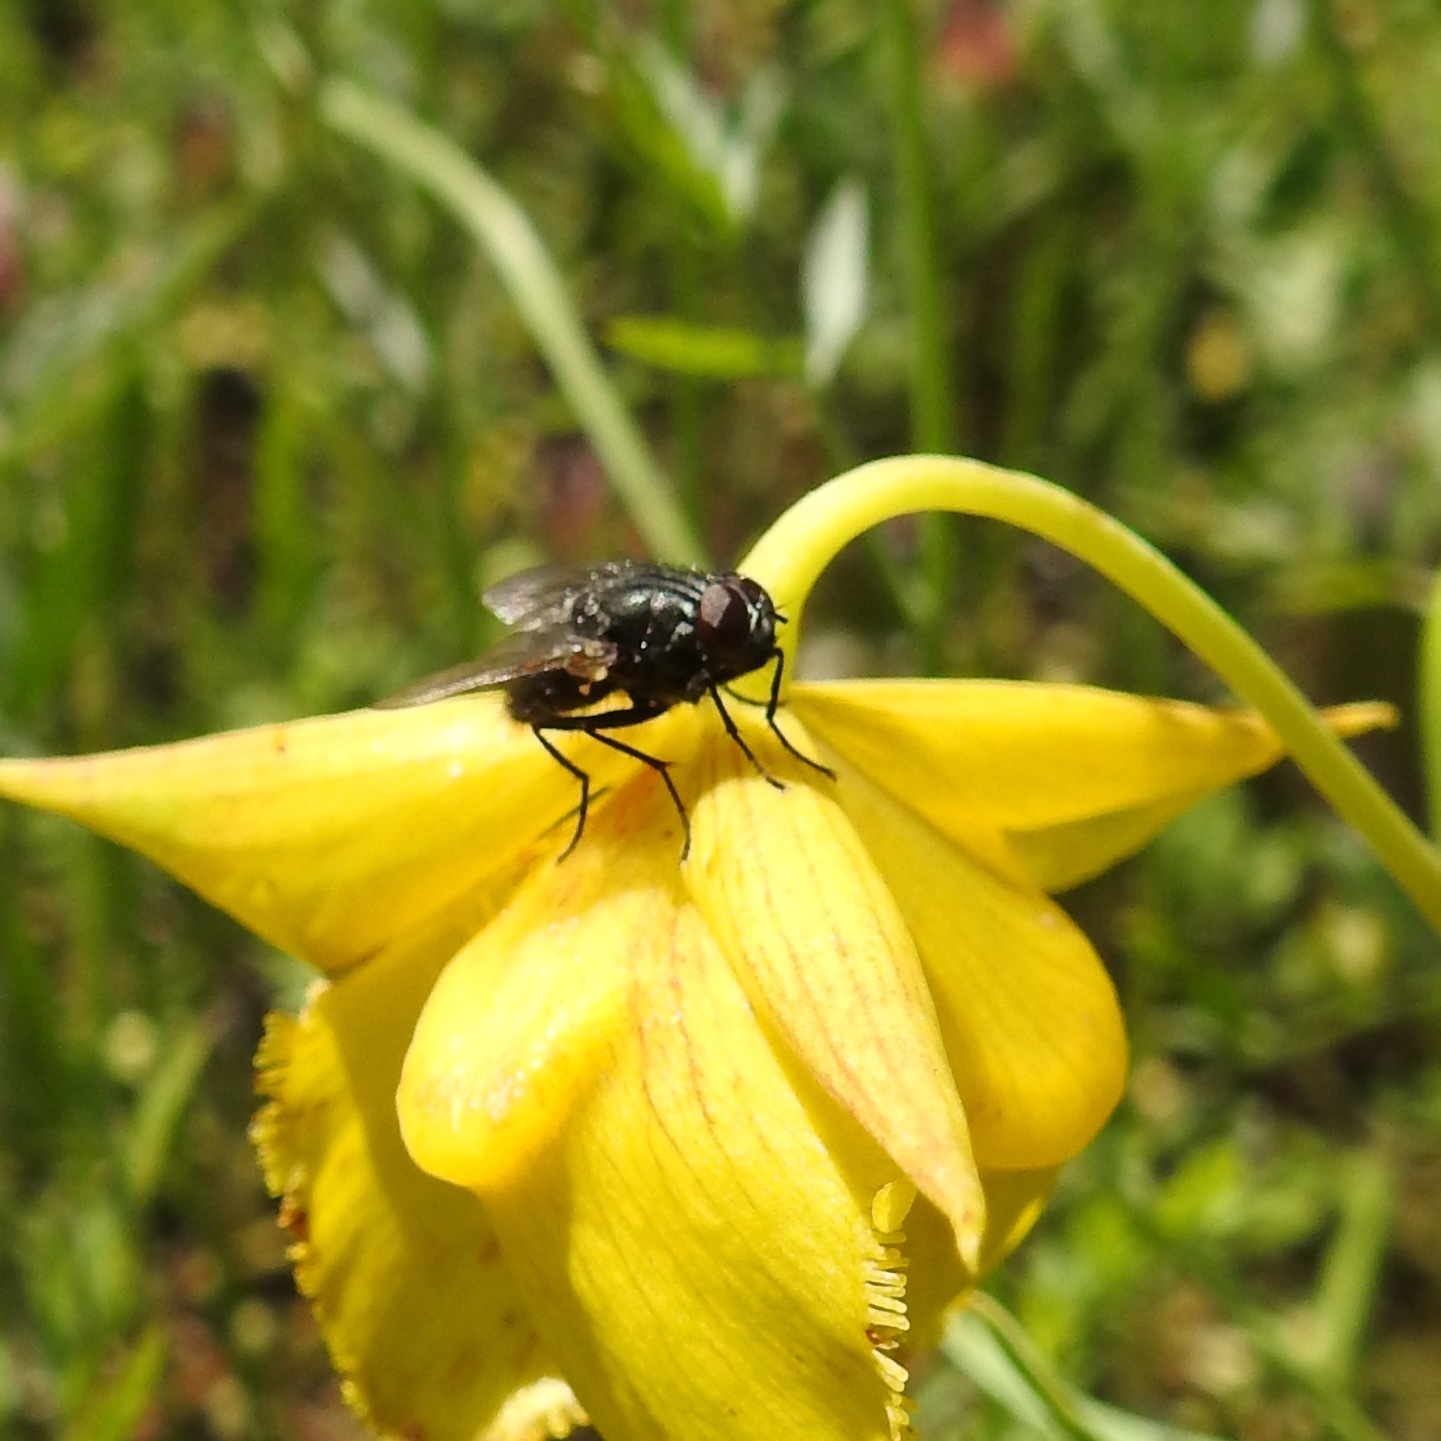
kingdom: Plantae
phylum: Tracheophyta
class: Liliopsida
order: Liliales
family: Liliaceae
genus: Calochortus
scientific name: Calochortus amabilis
